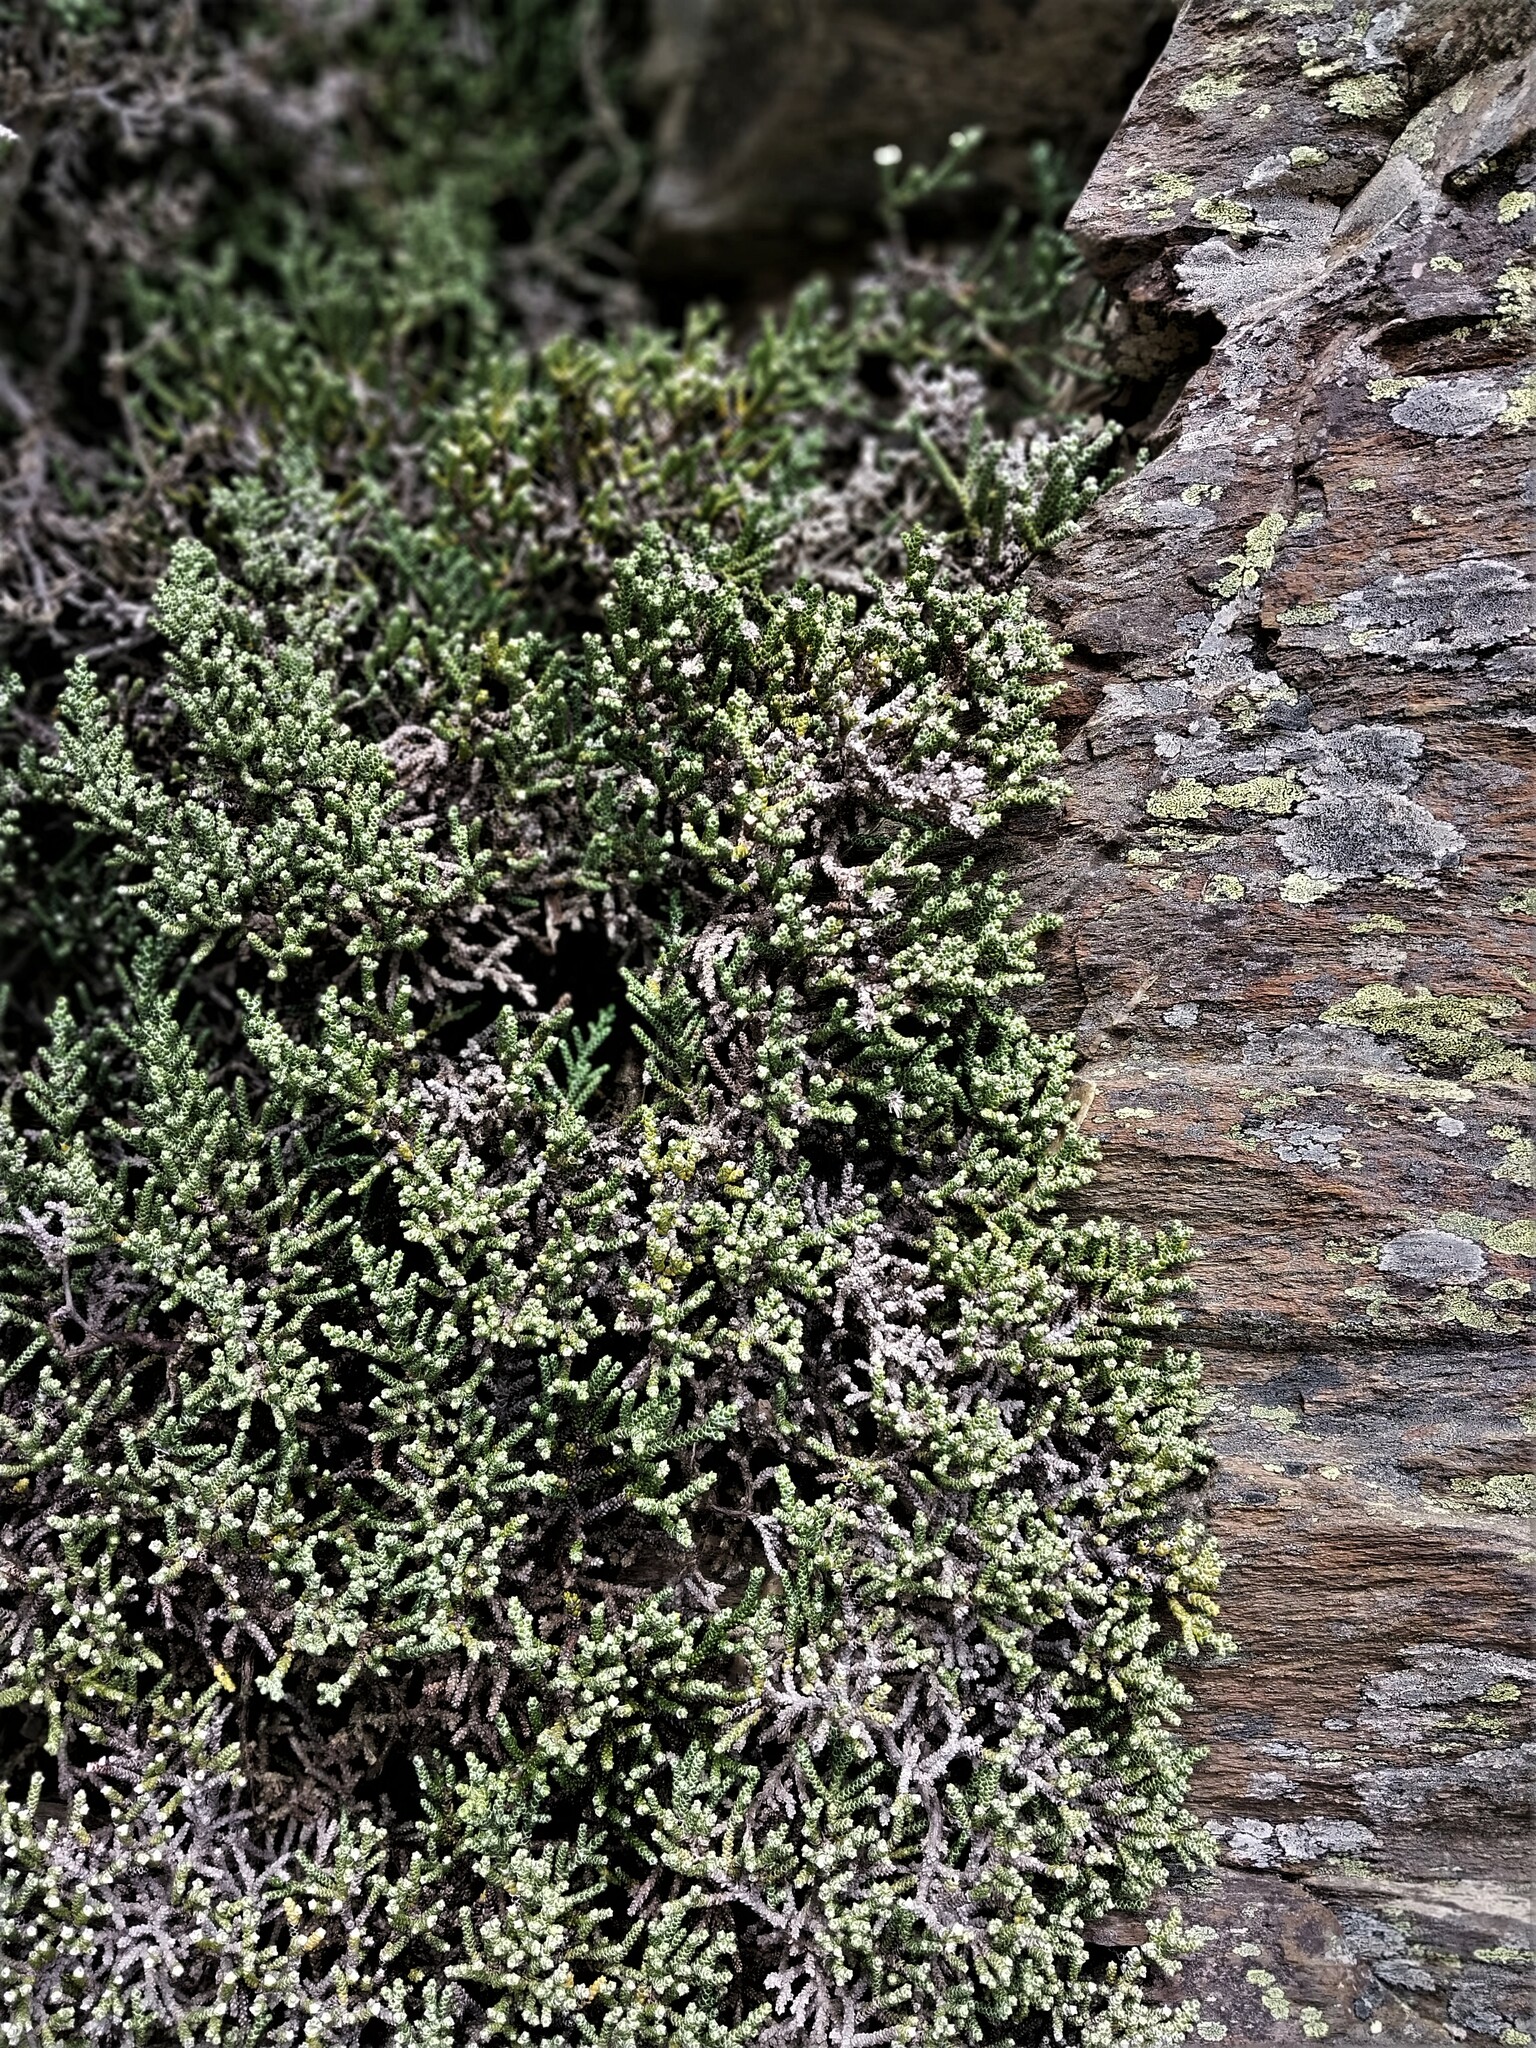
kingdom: Plantae
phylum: Tracheophyta
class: Magnoliopsida
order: Asterales
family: Asteraceae
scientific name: Asteraceae
